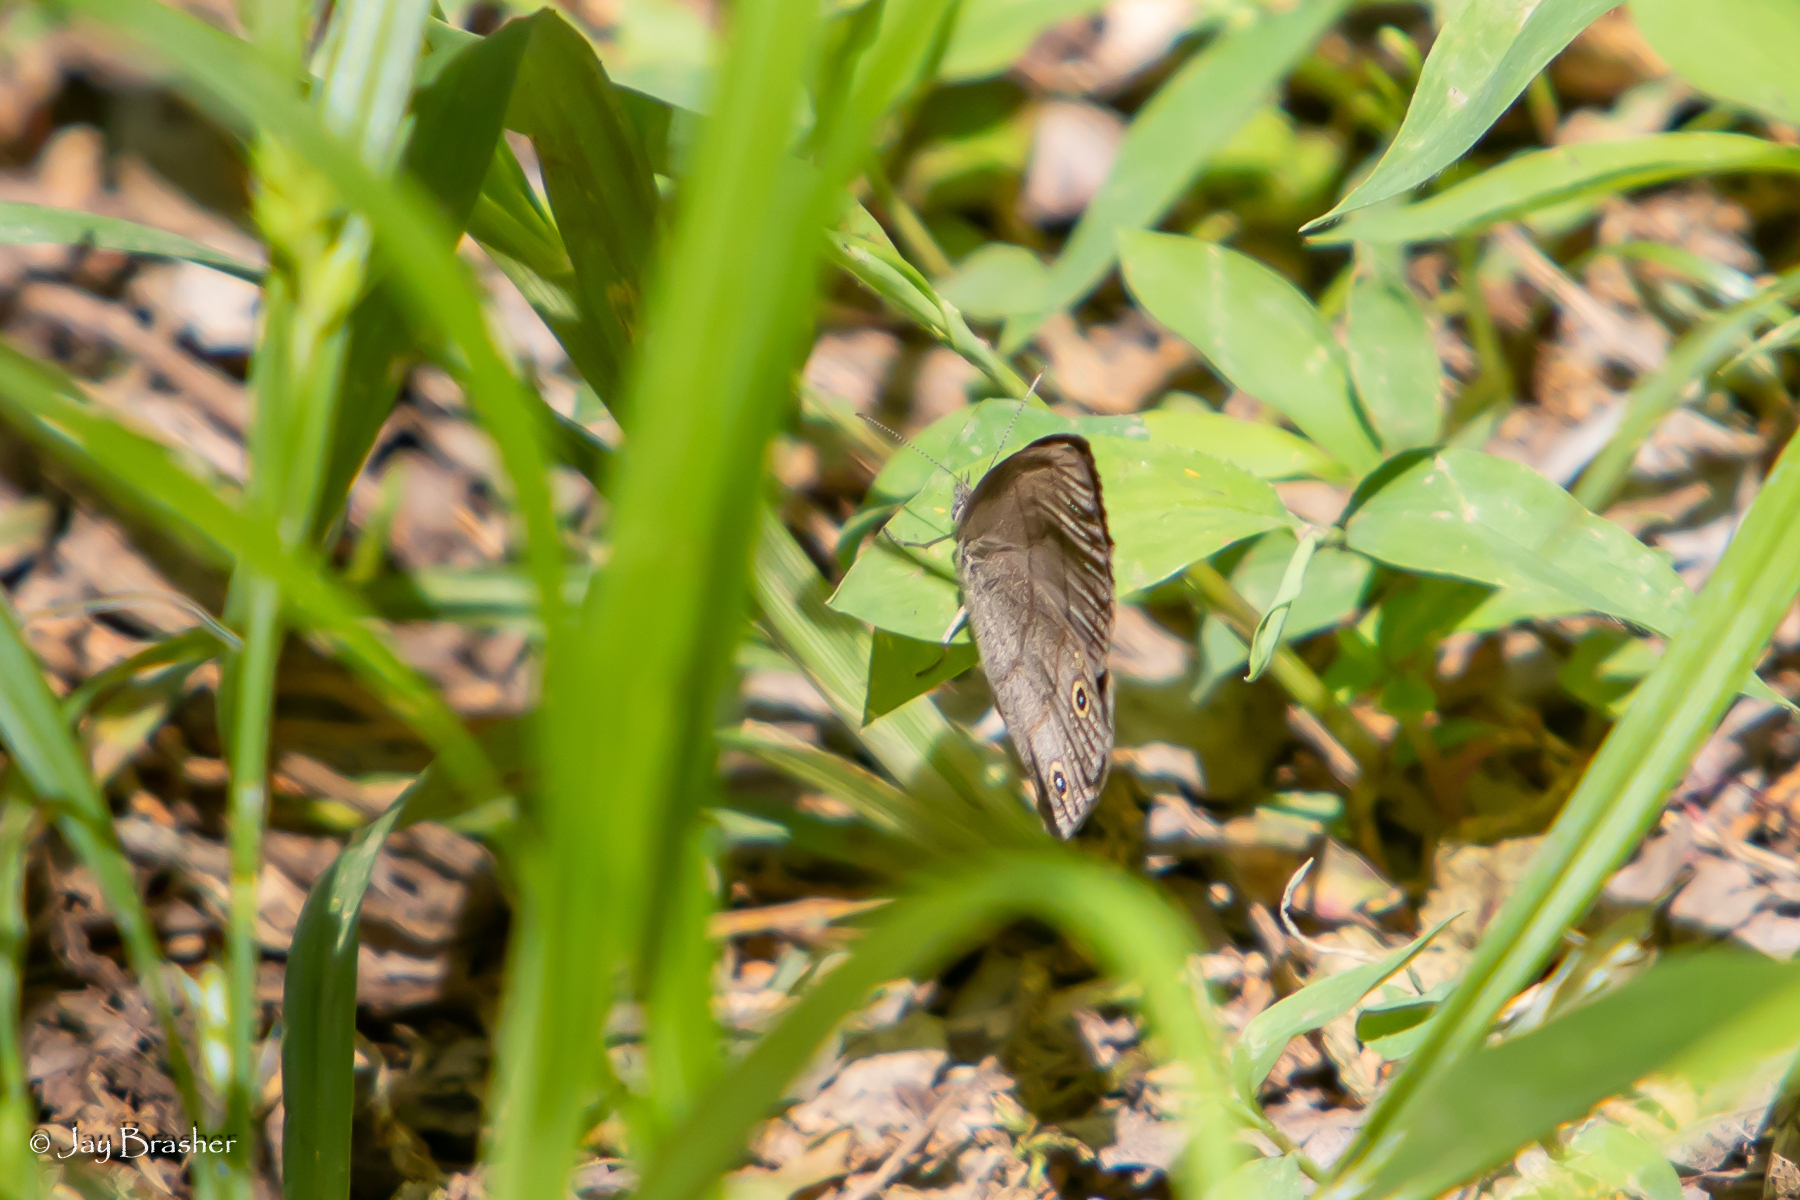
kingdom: Animalia
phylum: Arthropoda
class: Insecta
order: Lepidoptera
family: Nymphalidae
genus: Hermeuptychia
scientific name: Hermeuptychia hermes
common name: Hermes satyr
